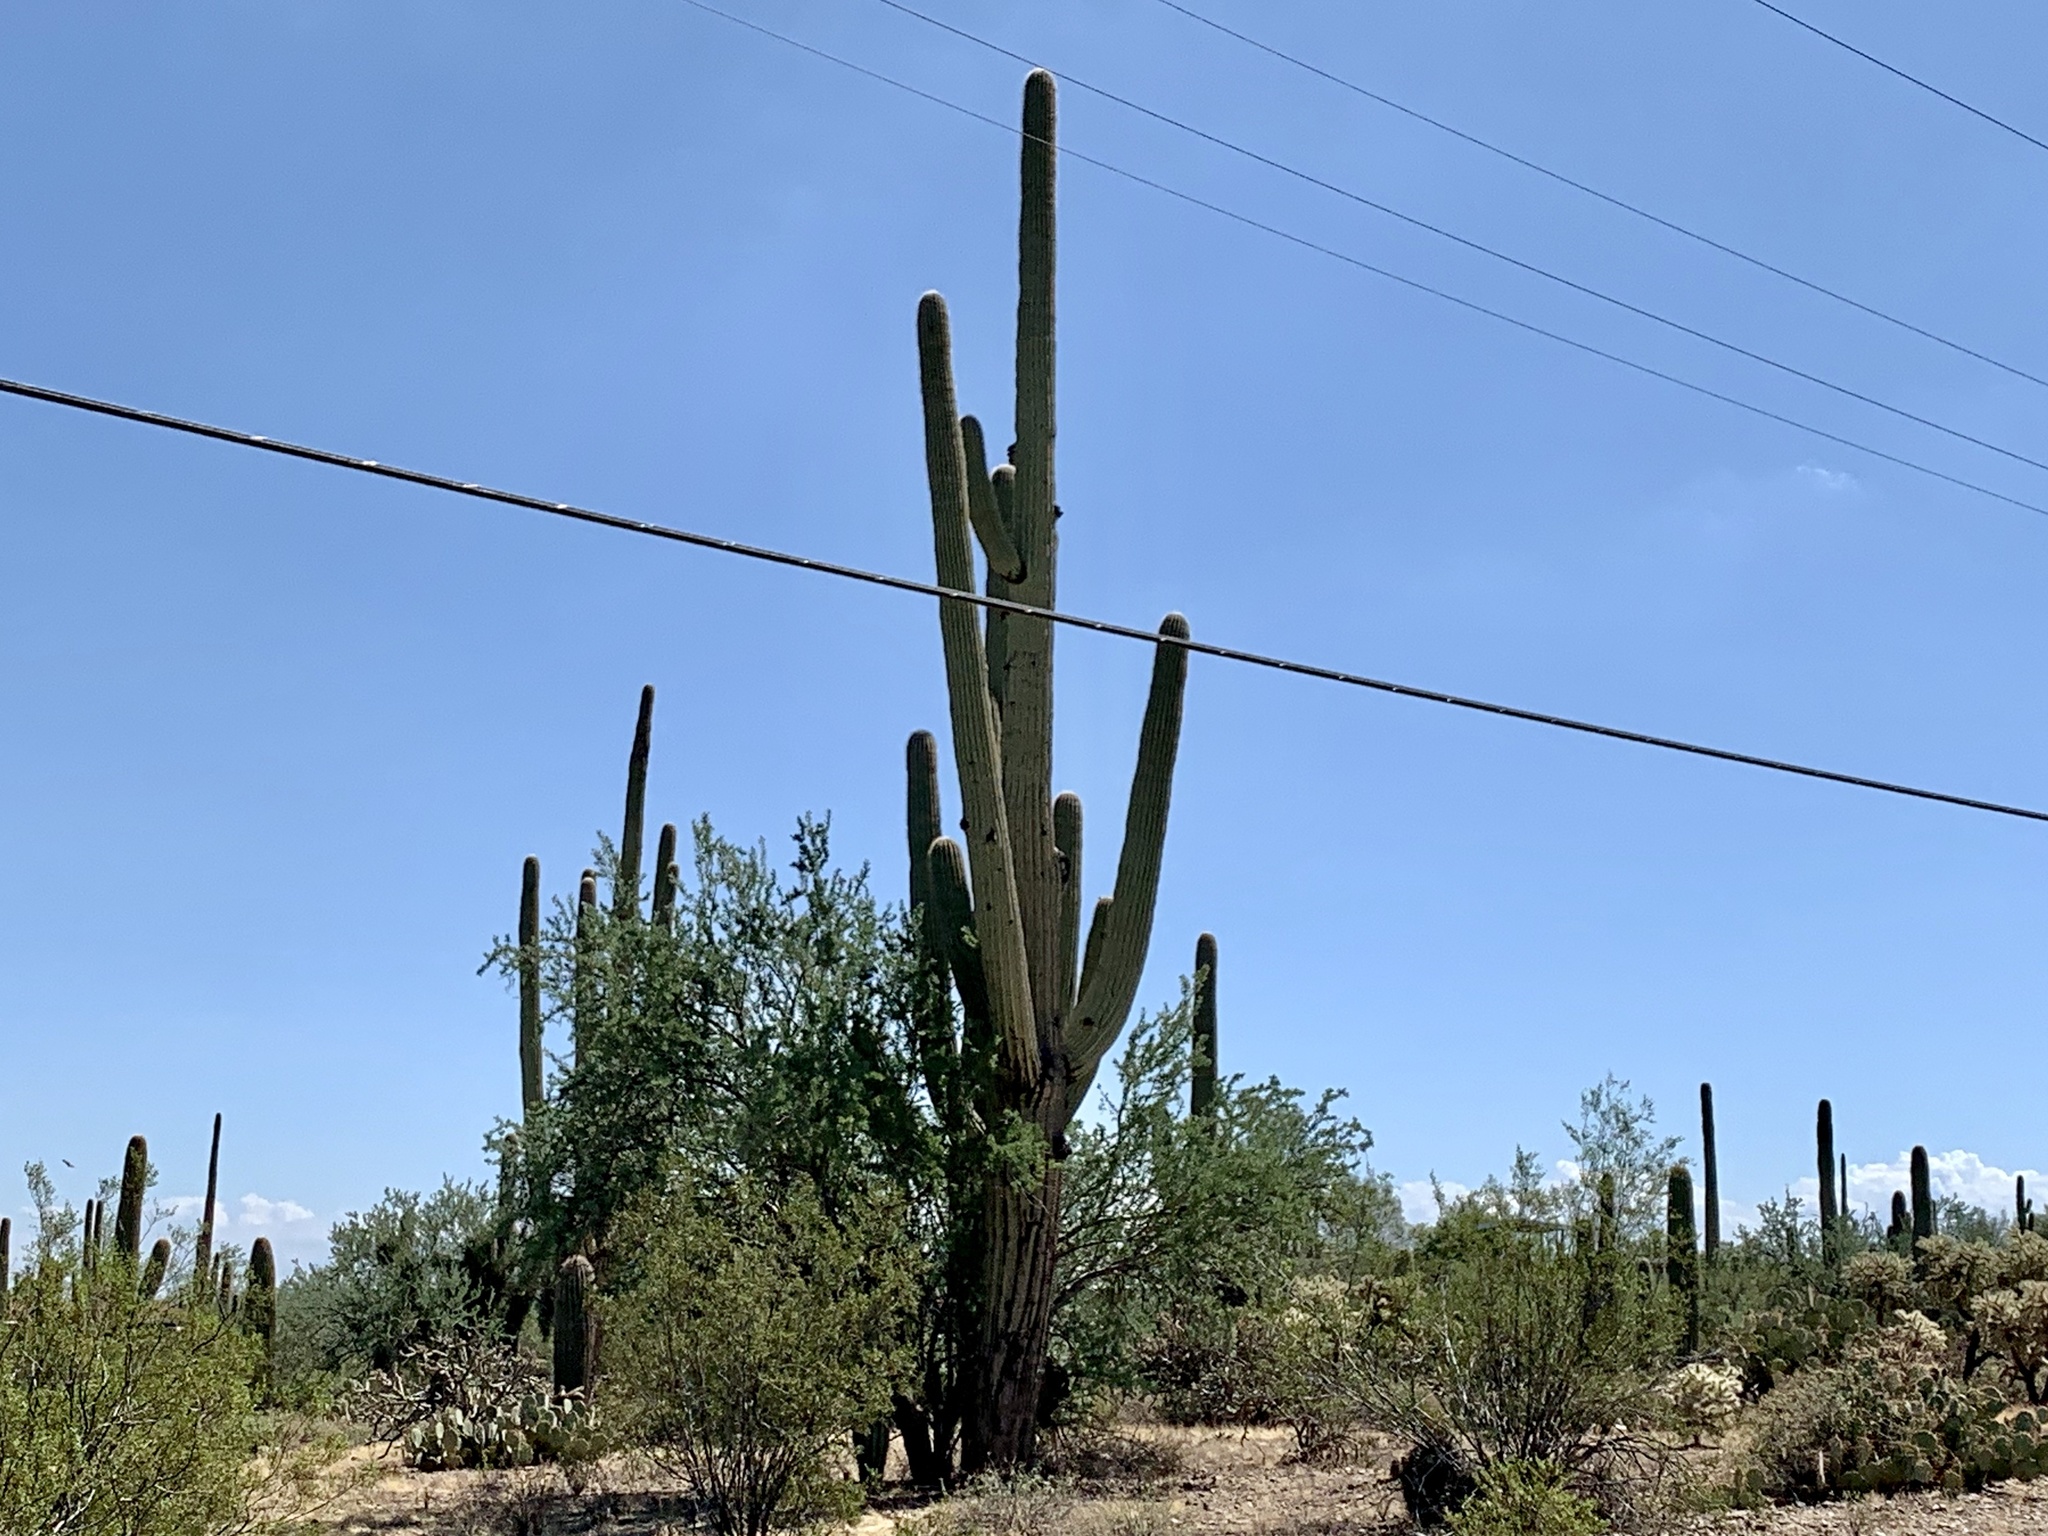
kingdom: Plantae
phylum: Tracheophyta
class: Magnoliopsida
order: Caryophyllales
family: Cactaceae
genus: Carnegiea
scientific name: Carnegiea gigantea
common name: Saguaro
